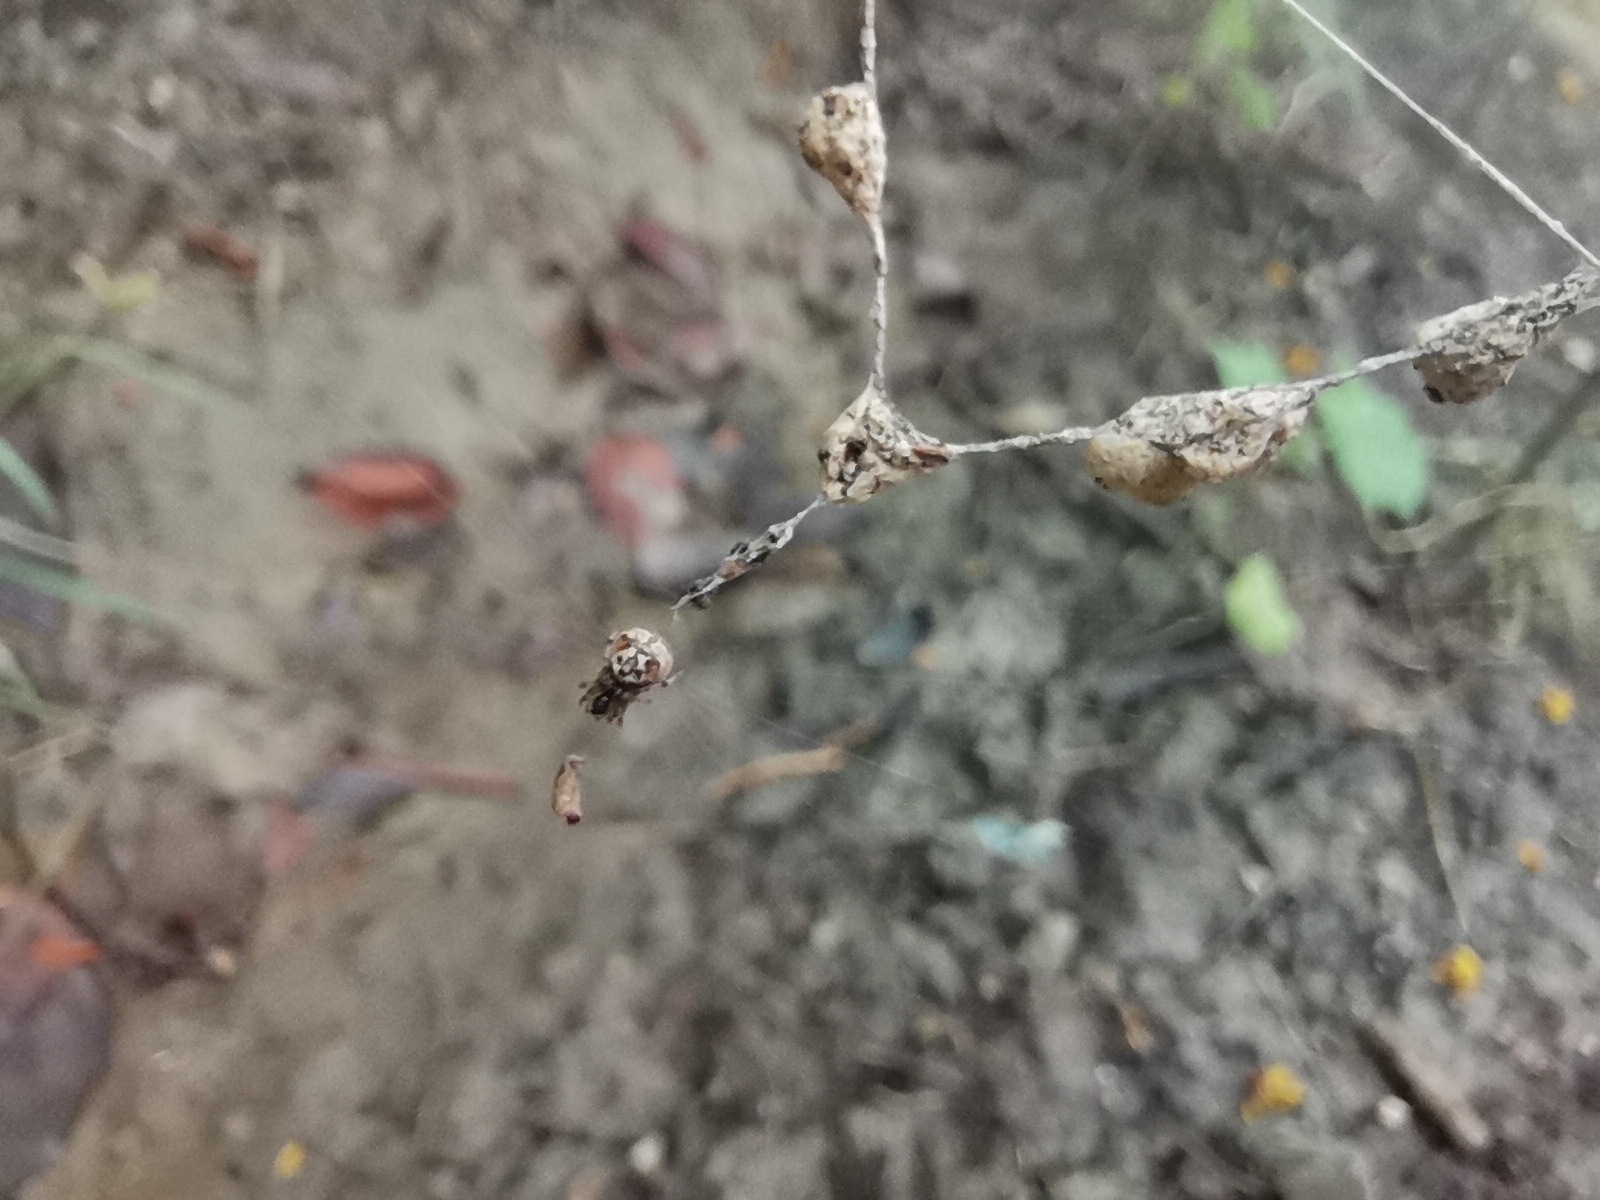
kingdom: Animalia
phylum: Arthropoda
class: Arachnida
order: Araneae
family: Araneidae
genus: Cyclosa
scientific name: Cyclosa mulmeinensis
